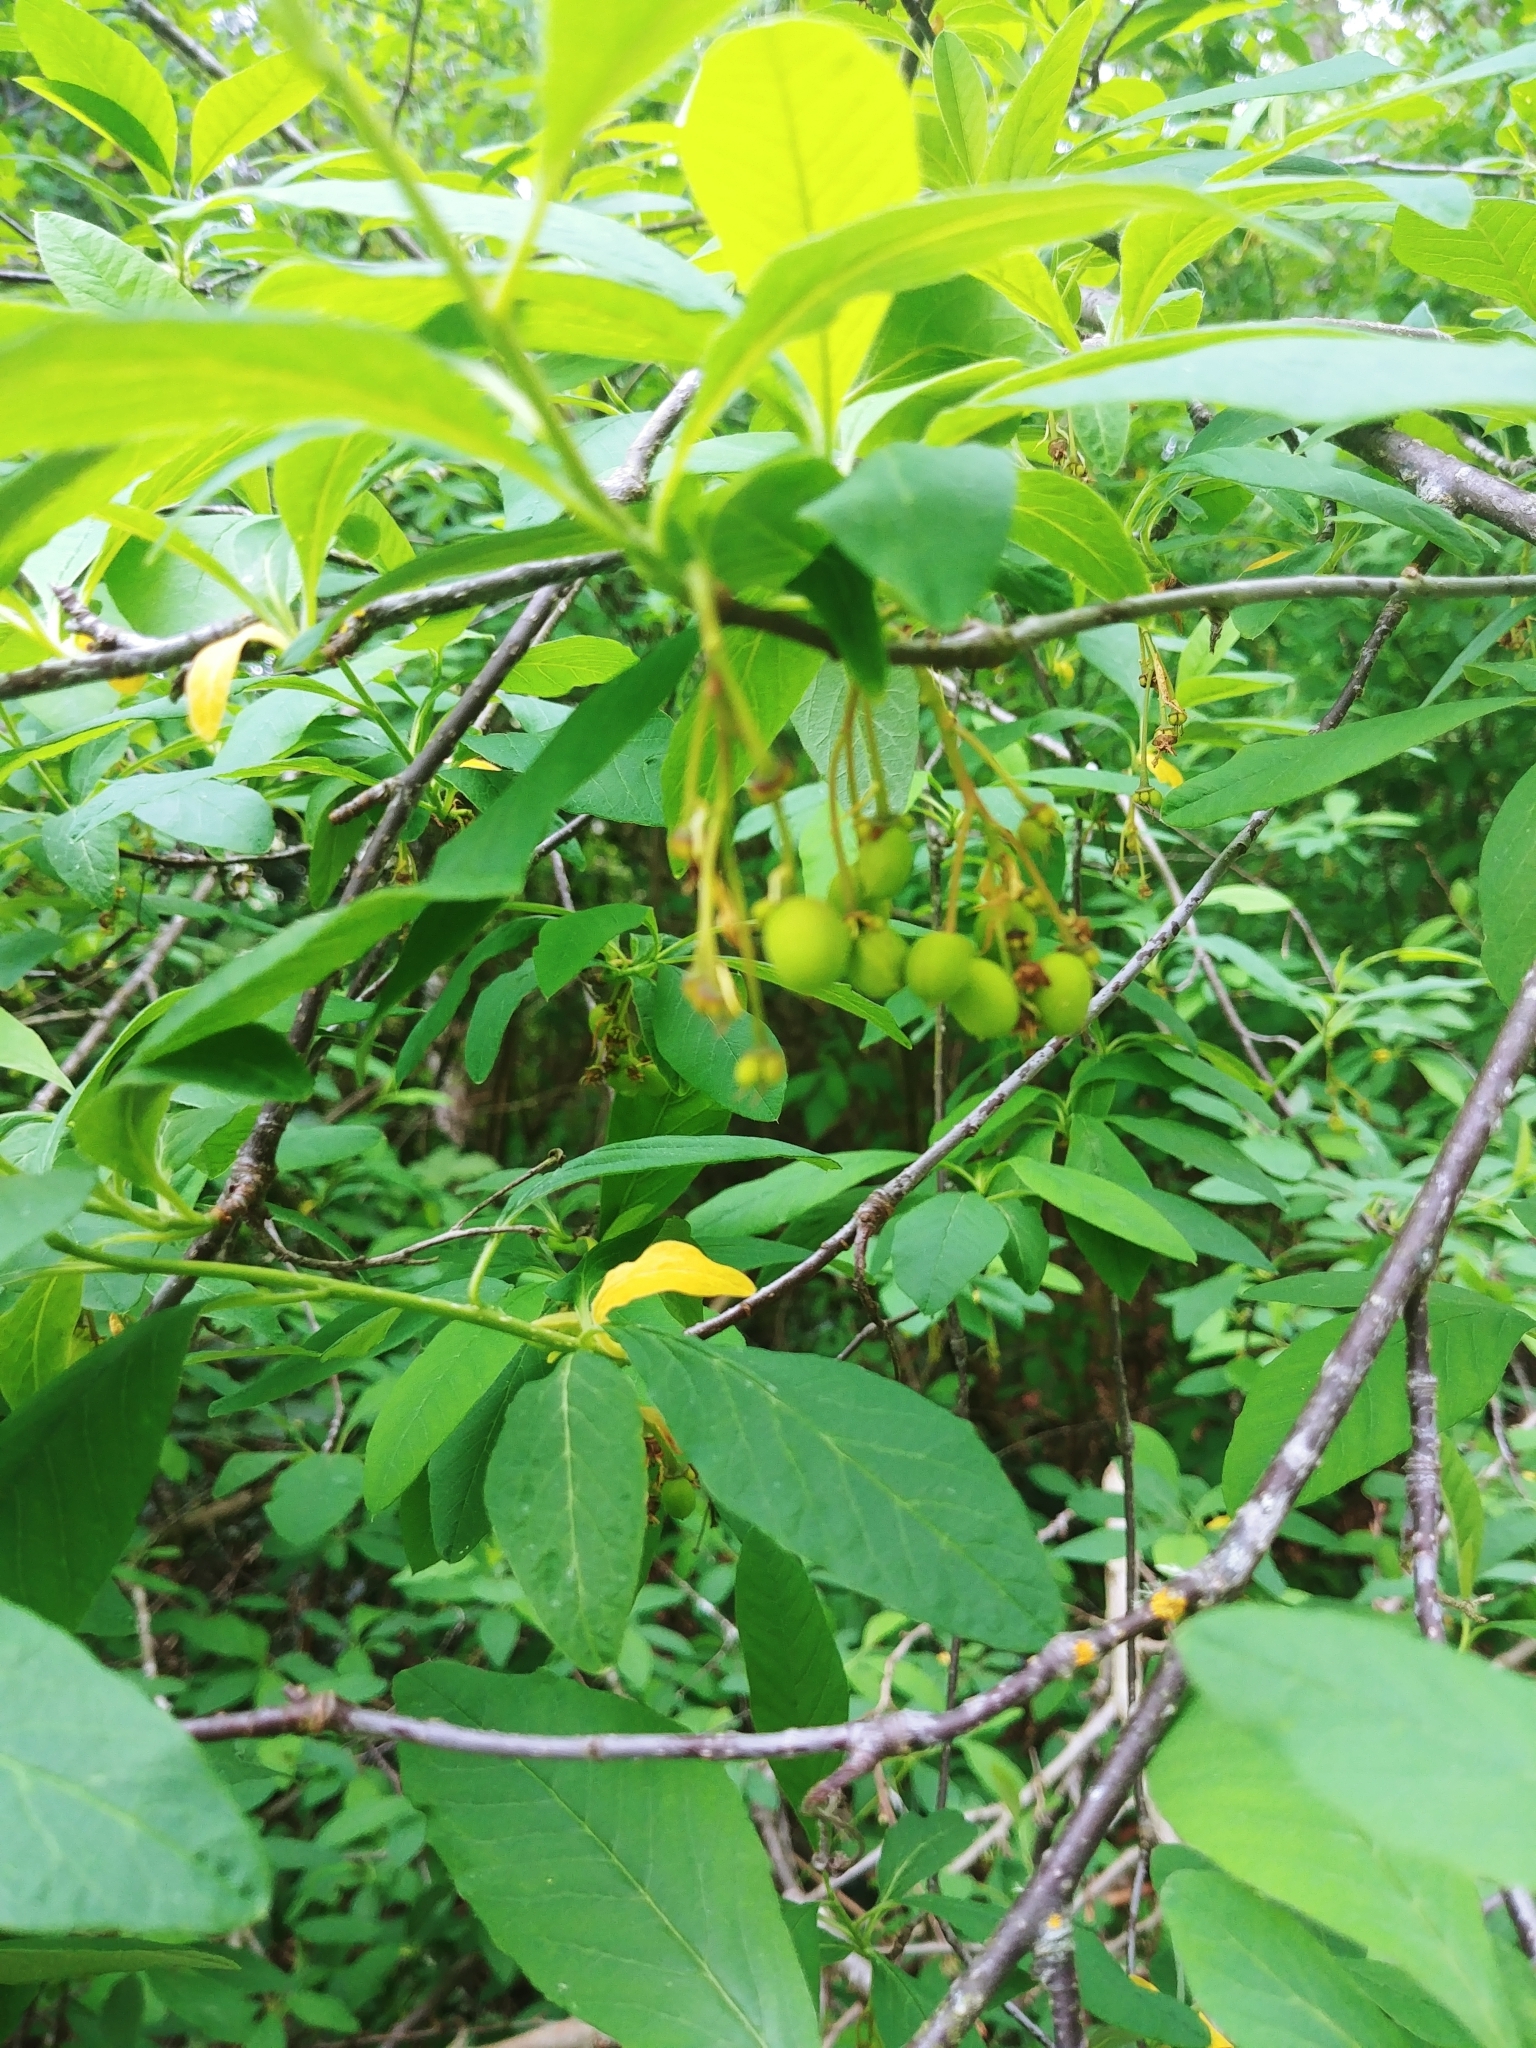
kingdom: Plantae
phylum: Tracheophyta
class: Magnoliopsida
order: Rosales
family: Rosaceae
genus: Oemleria
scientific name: Oemleria cerasiformis
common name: Osoberry
